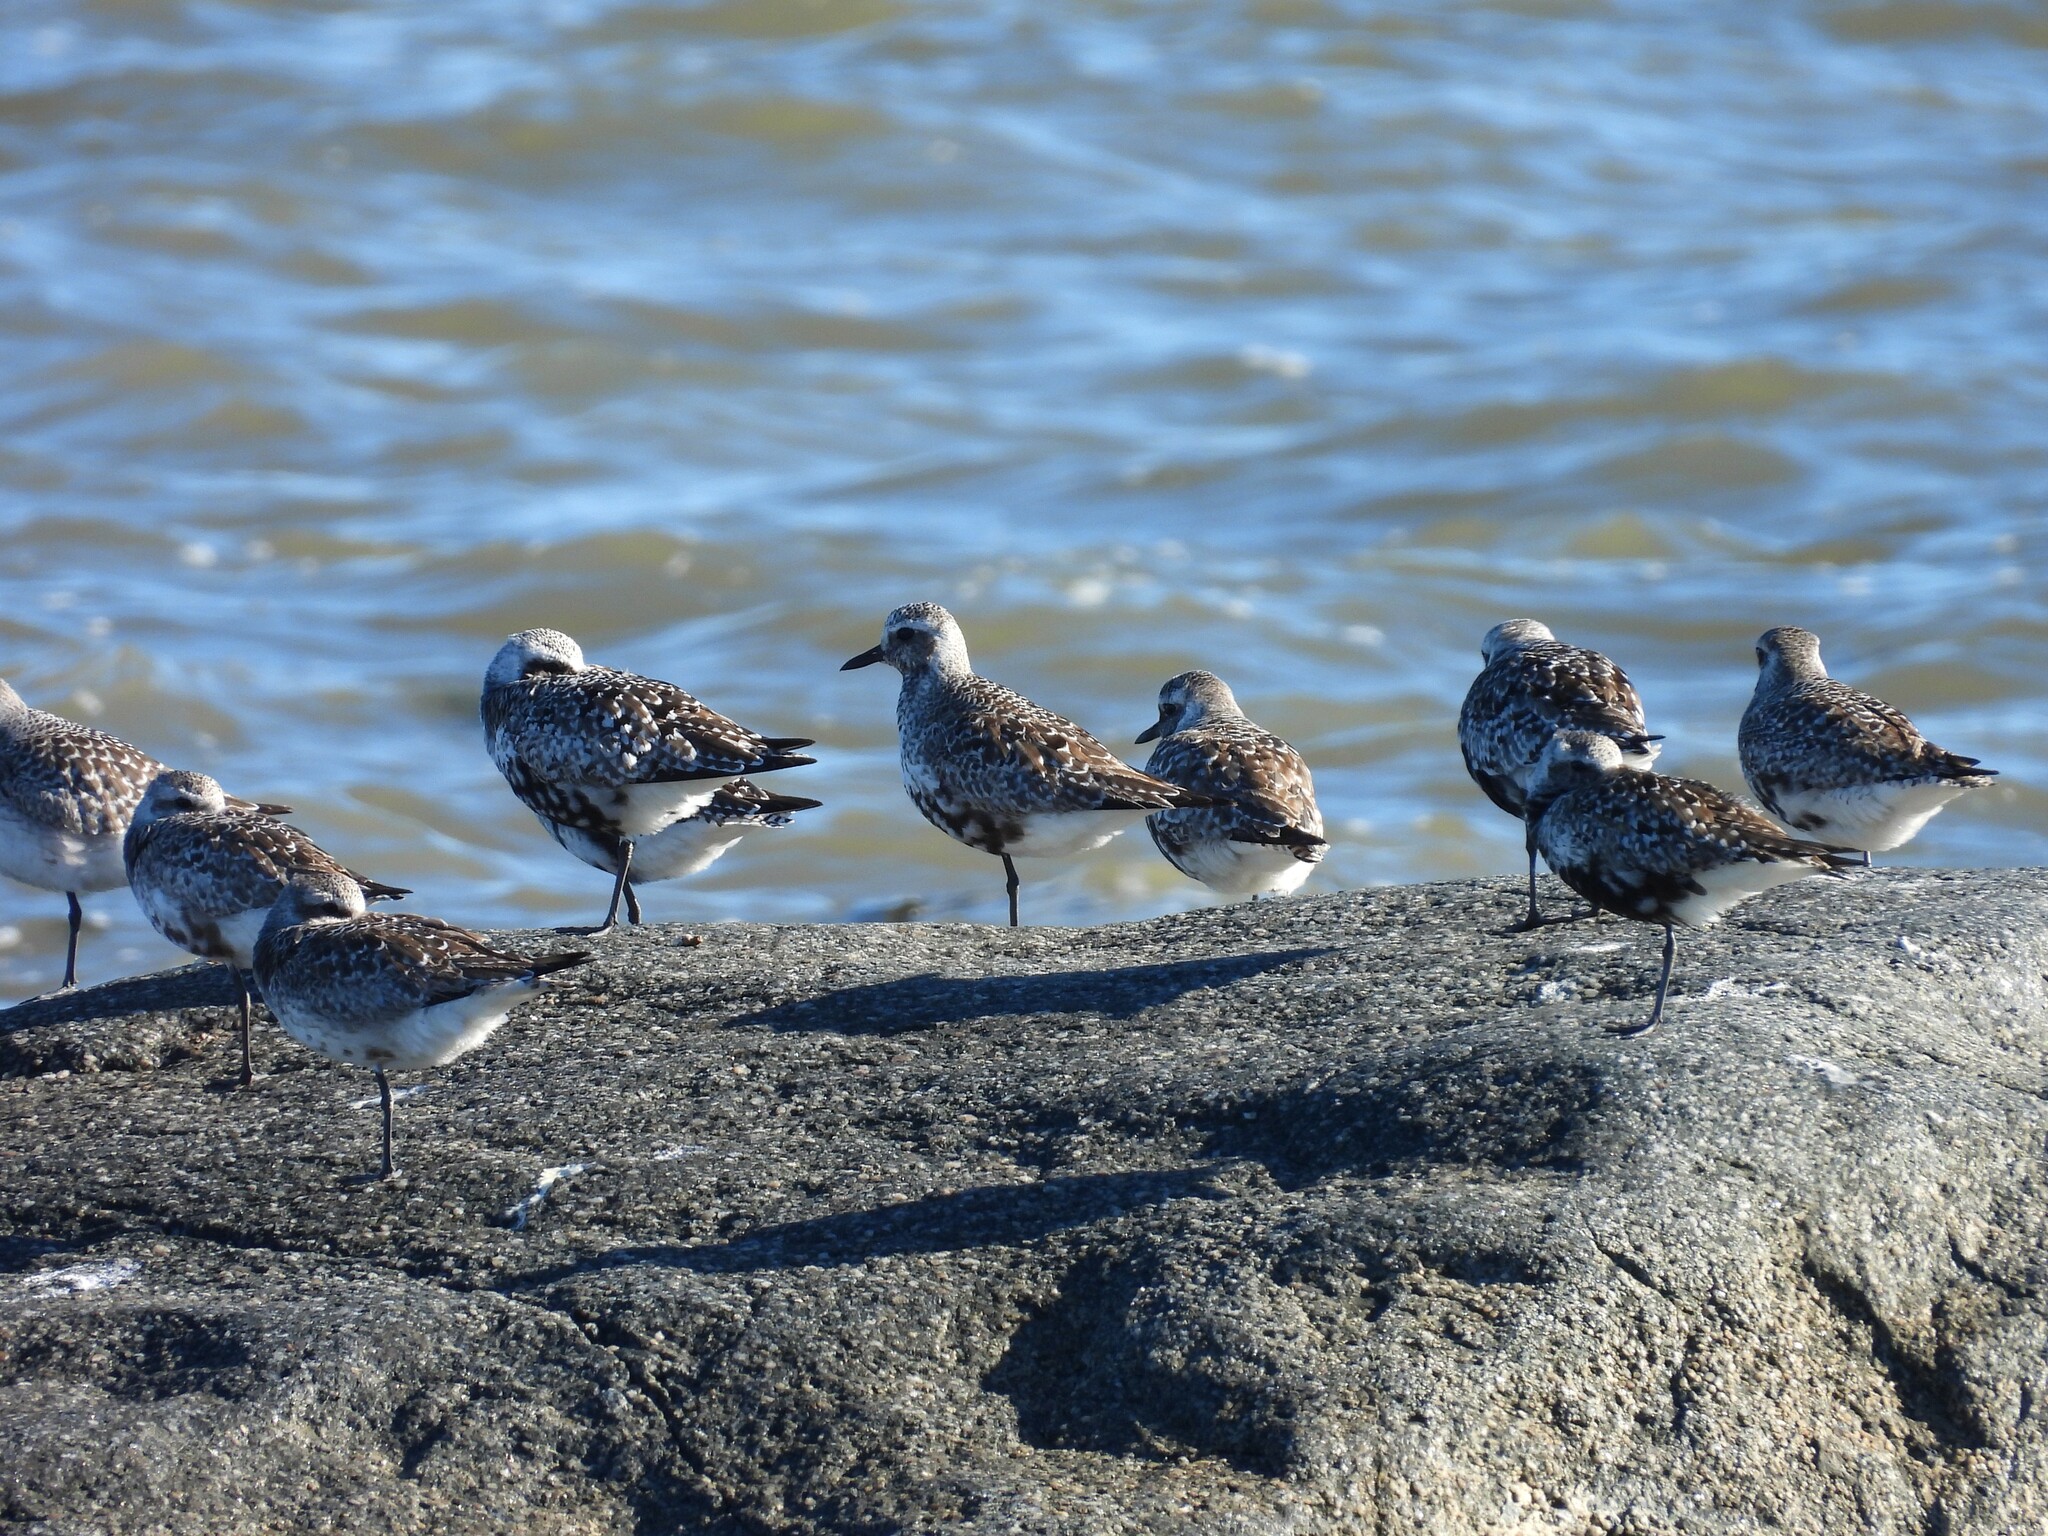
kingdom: Animalia
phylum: Chordata
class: Aves
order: Charadriiformes
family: Charadriidae
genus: Pluvialis
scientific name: Pluvialis squatarola
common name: Grey plover
